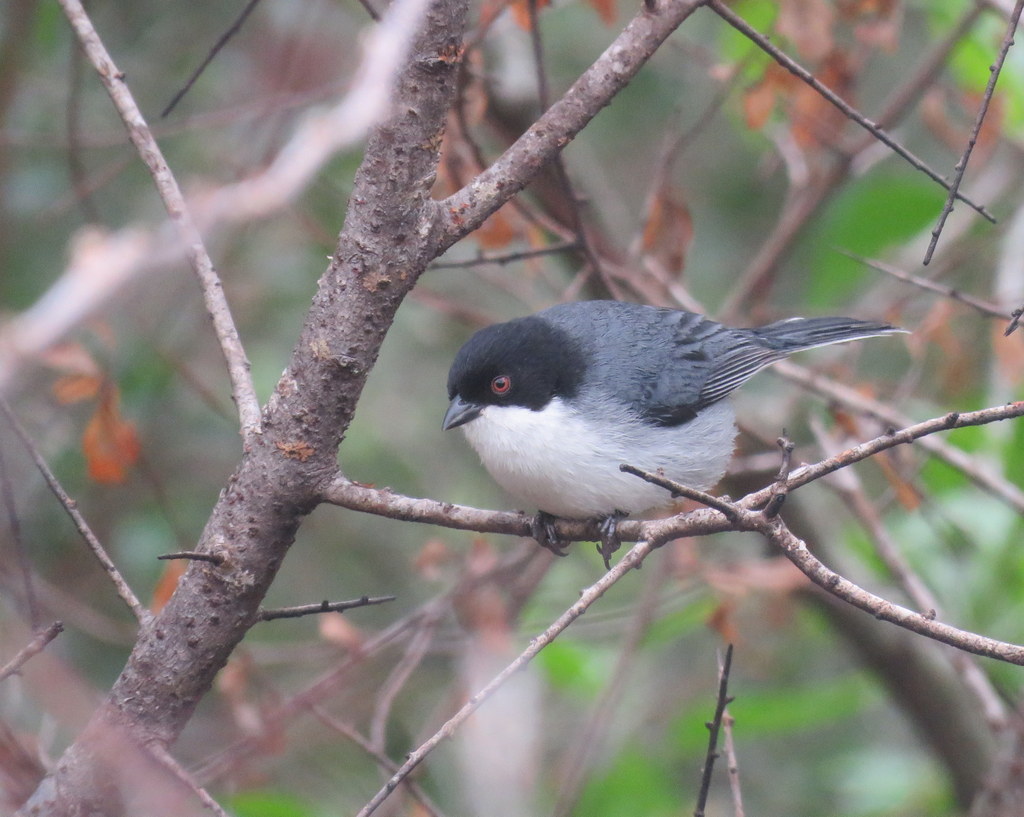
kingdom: Animalia
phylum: Chordata
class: Aves
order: Passeriformes
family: Thraupidae
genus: Microspingus
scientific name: Microspingus melanoleucus
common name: Black-capped warbling-finch
